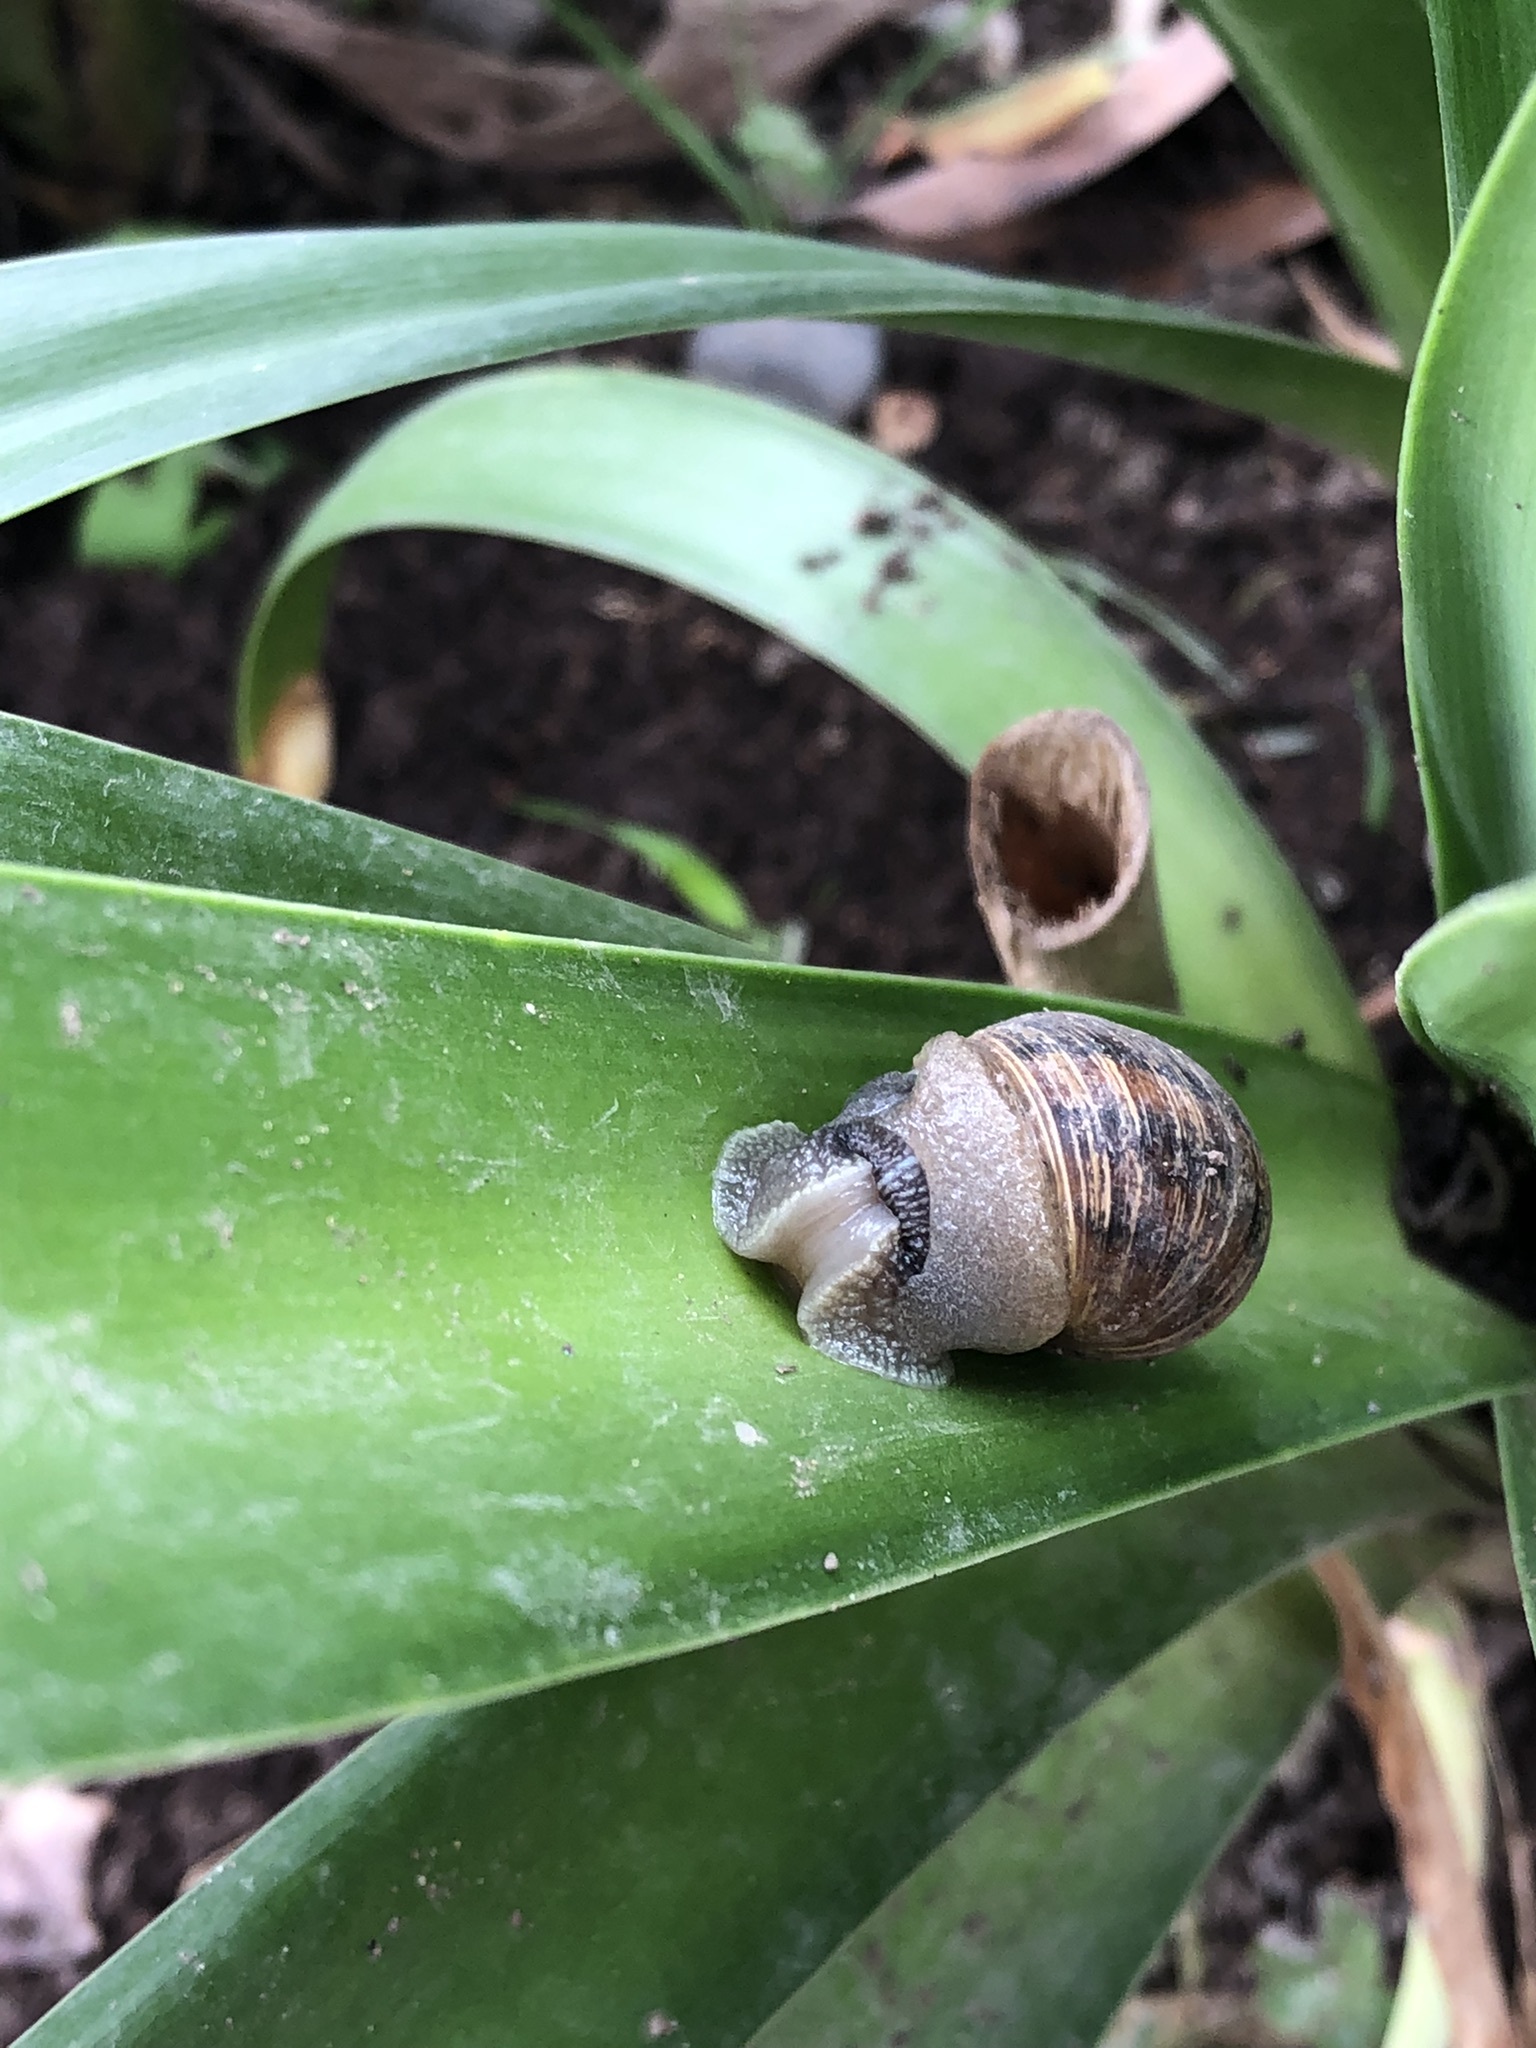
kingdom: Animalia
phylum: Mollusca
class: Gastropoda
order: Stylommatophora
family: Helicidae
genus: Cornu
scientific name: Cornu aspersum
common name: Brown garden snail
